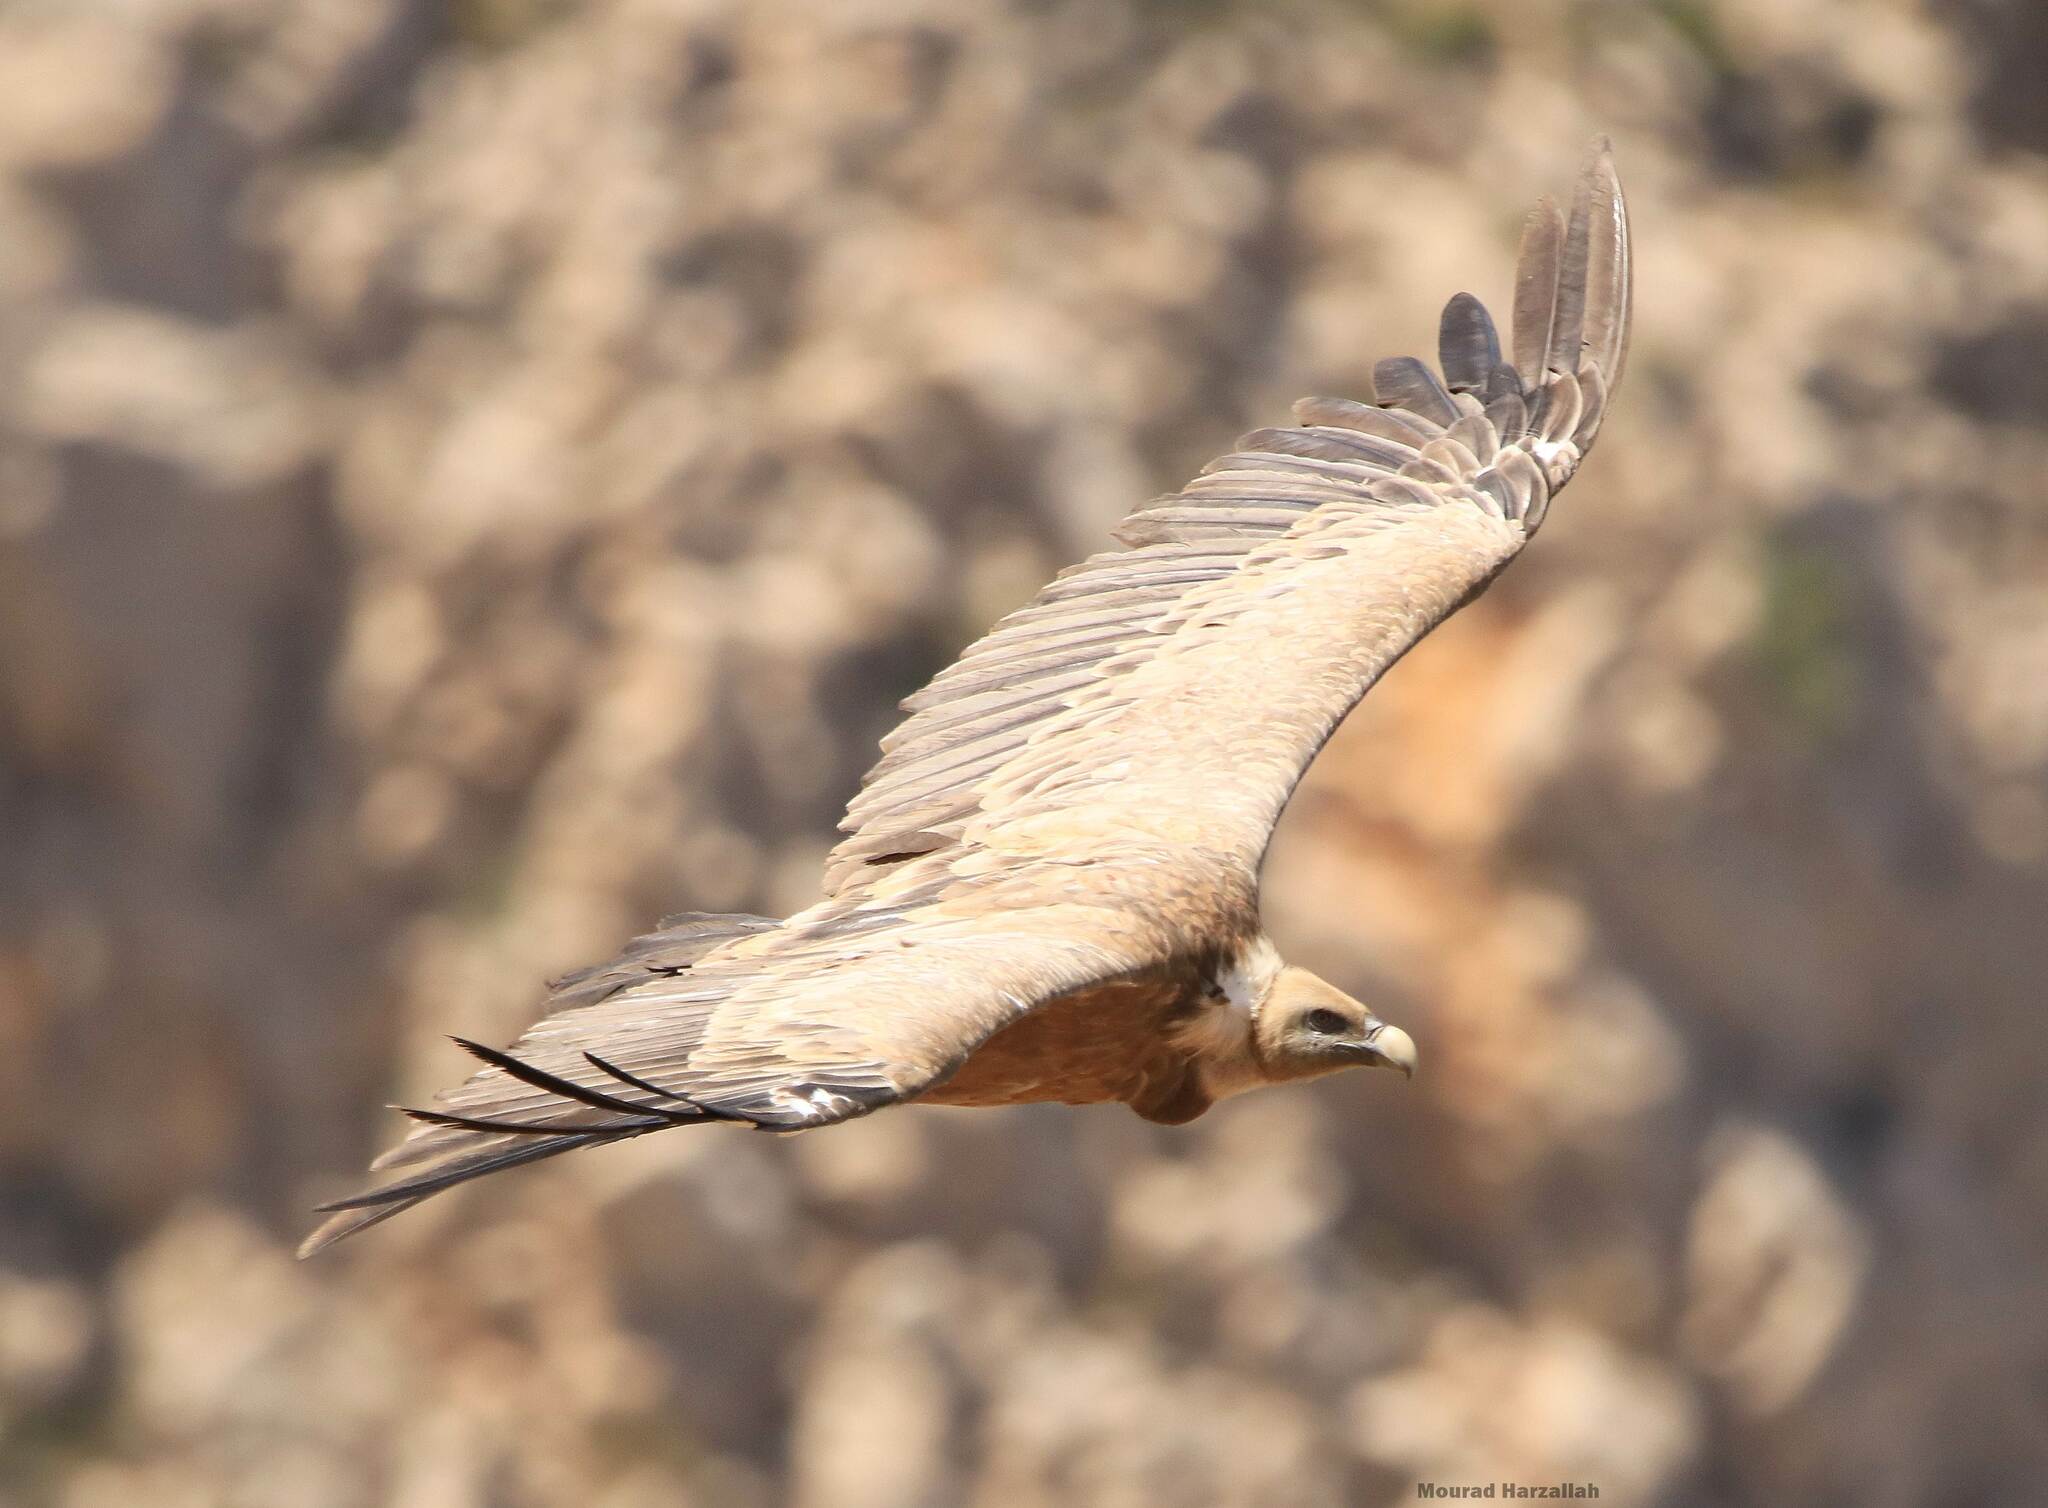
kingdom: Animalia
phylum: Chordata
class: Aves
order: Accipitriformes
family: Accipitridae
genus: Gyps
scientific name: Gyps fulvus
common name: Griffon vulture
